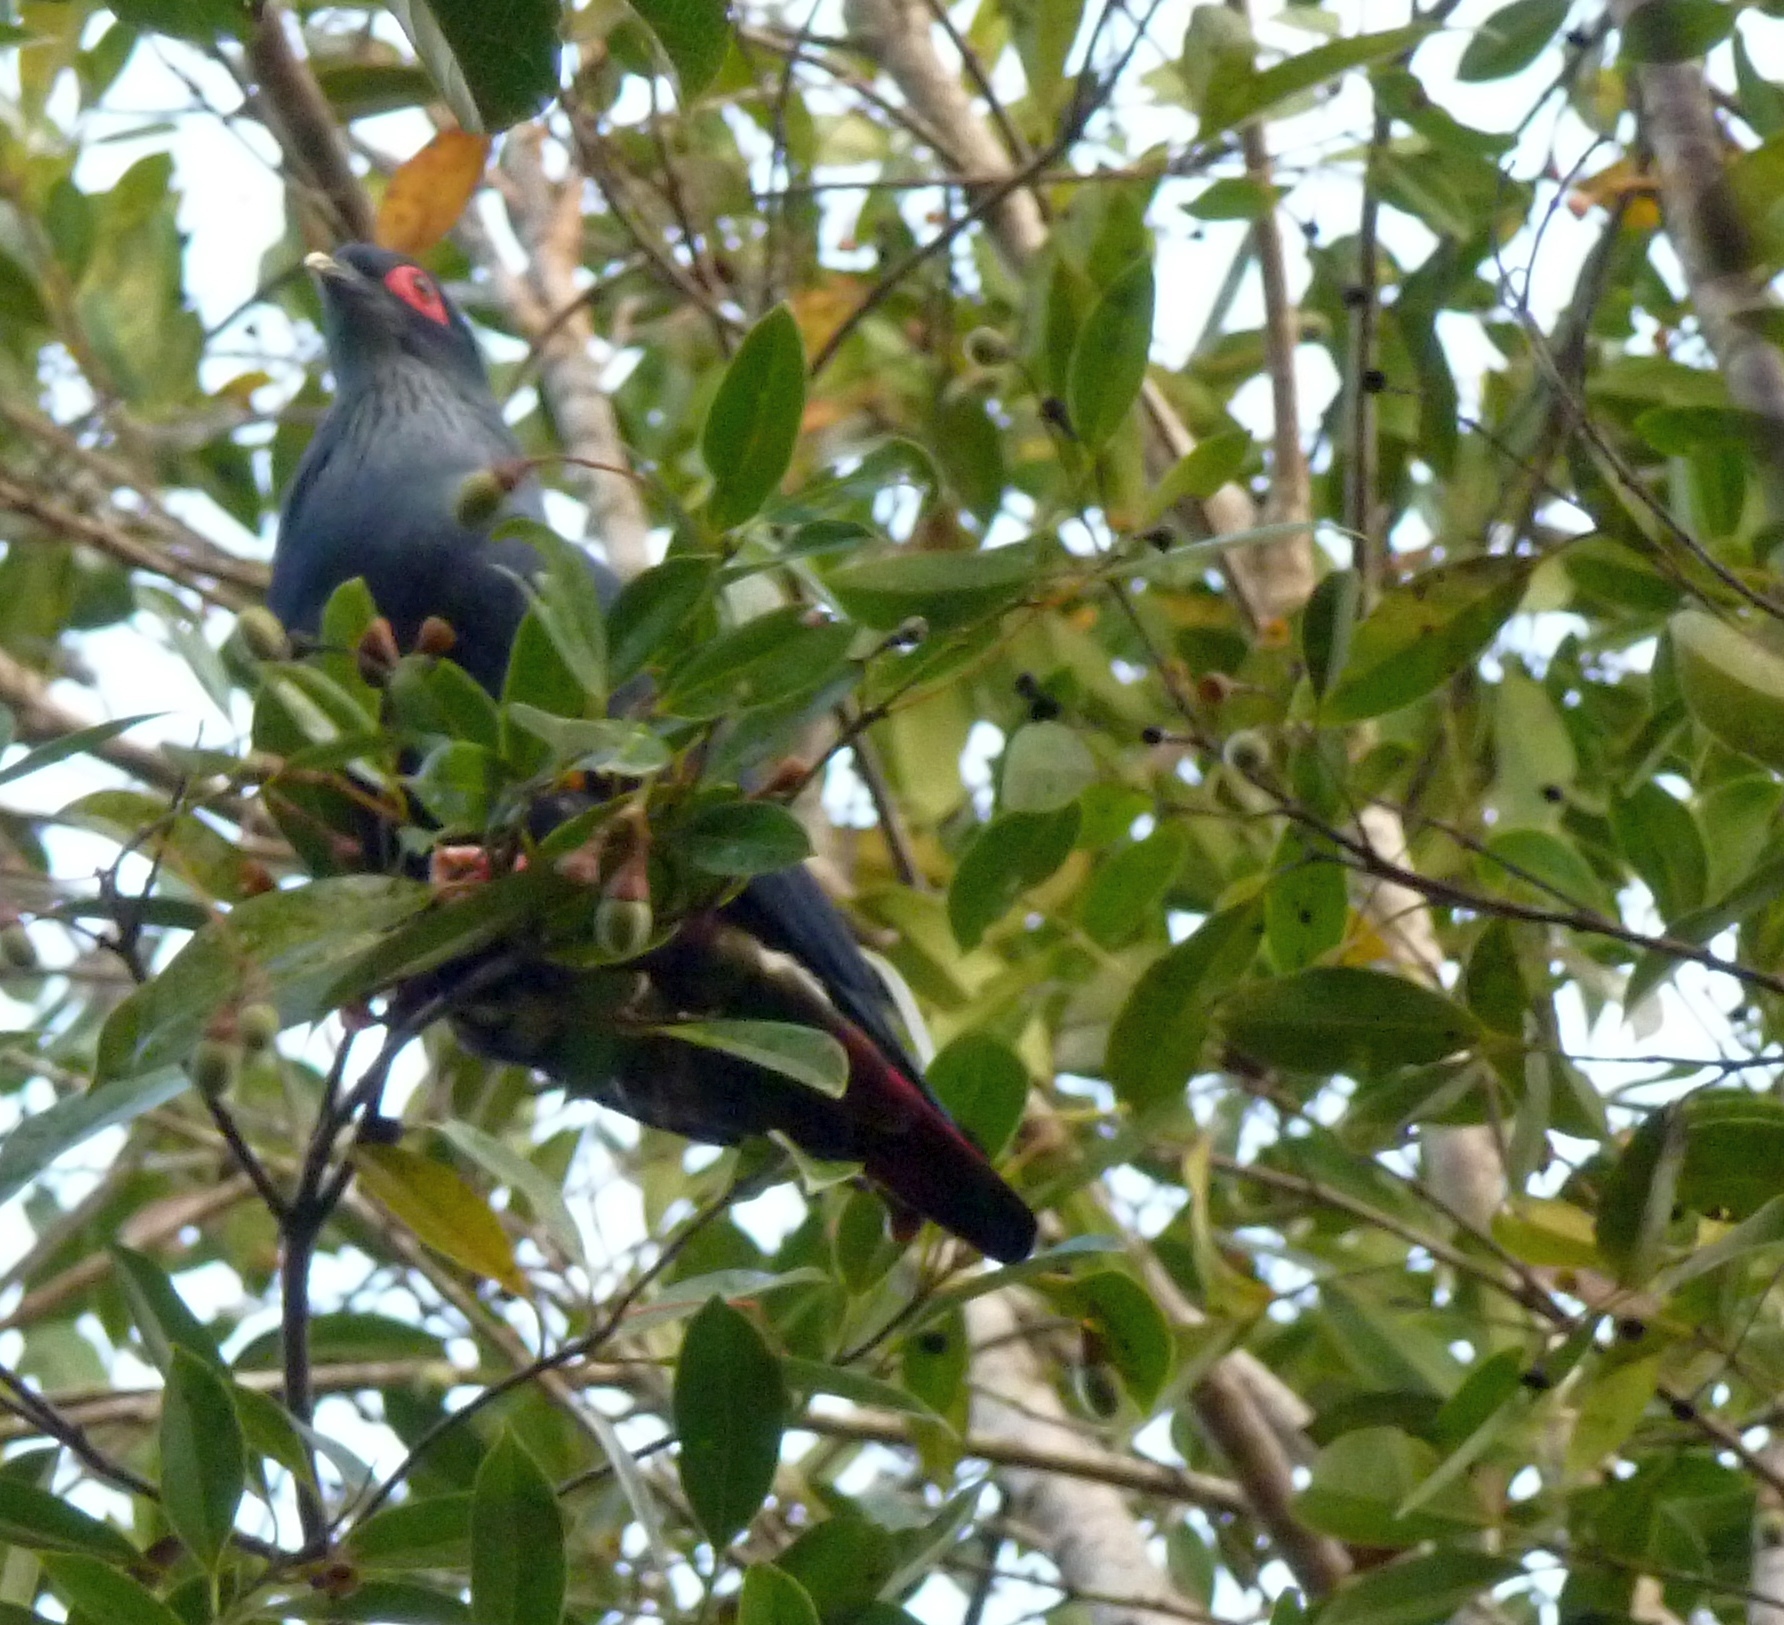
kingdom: Animalia
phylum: Chordata
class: Aves
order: Columbiformes
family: Columbidae
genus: Alectroenas
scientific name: Alectroenas madagascariensis
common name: Madagascar blue pigeon
